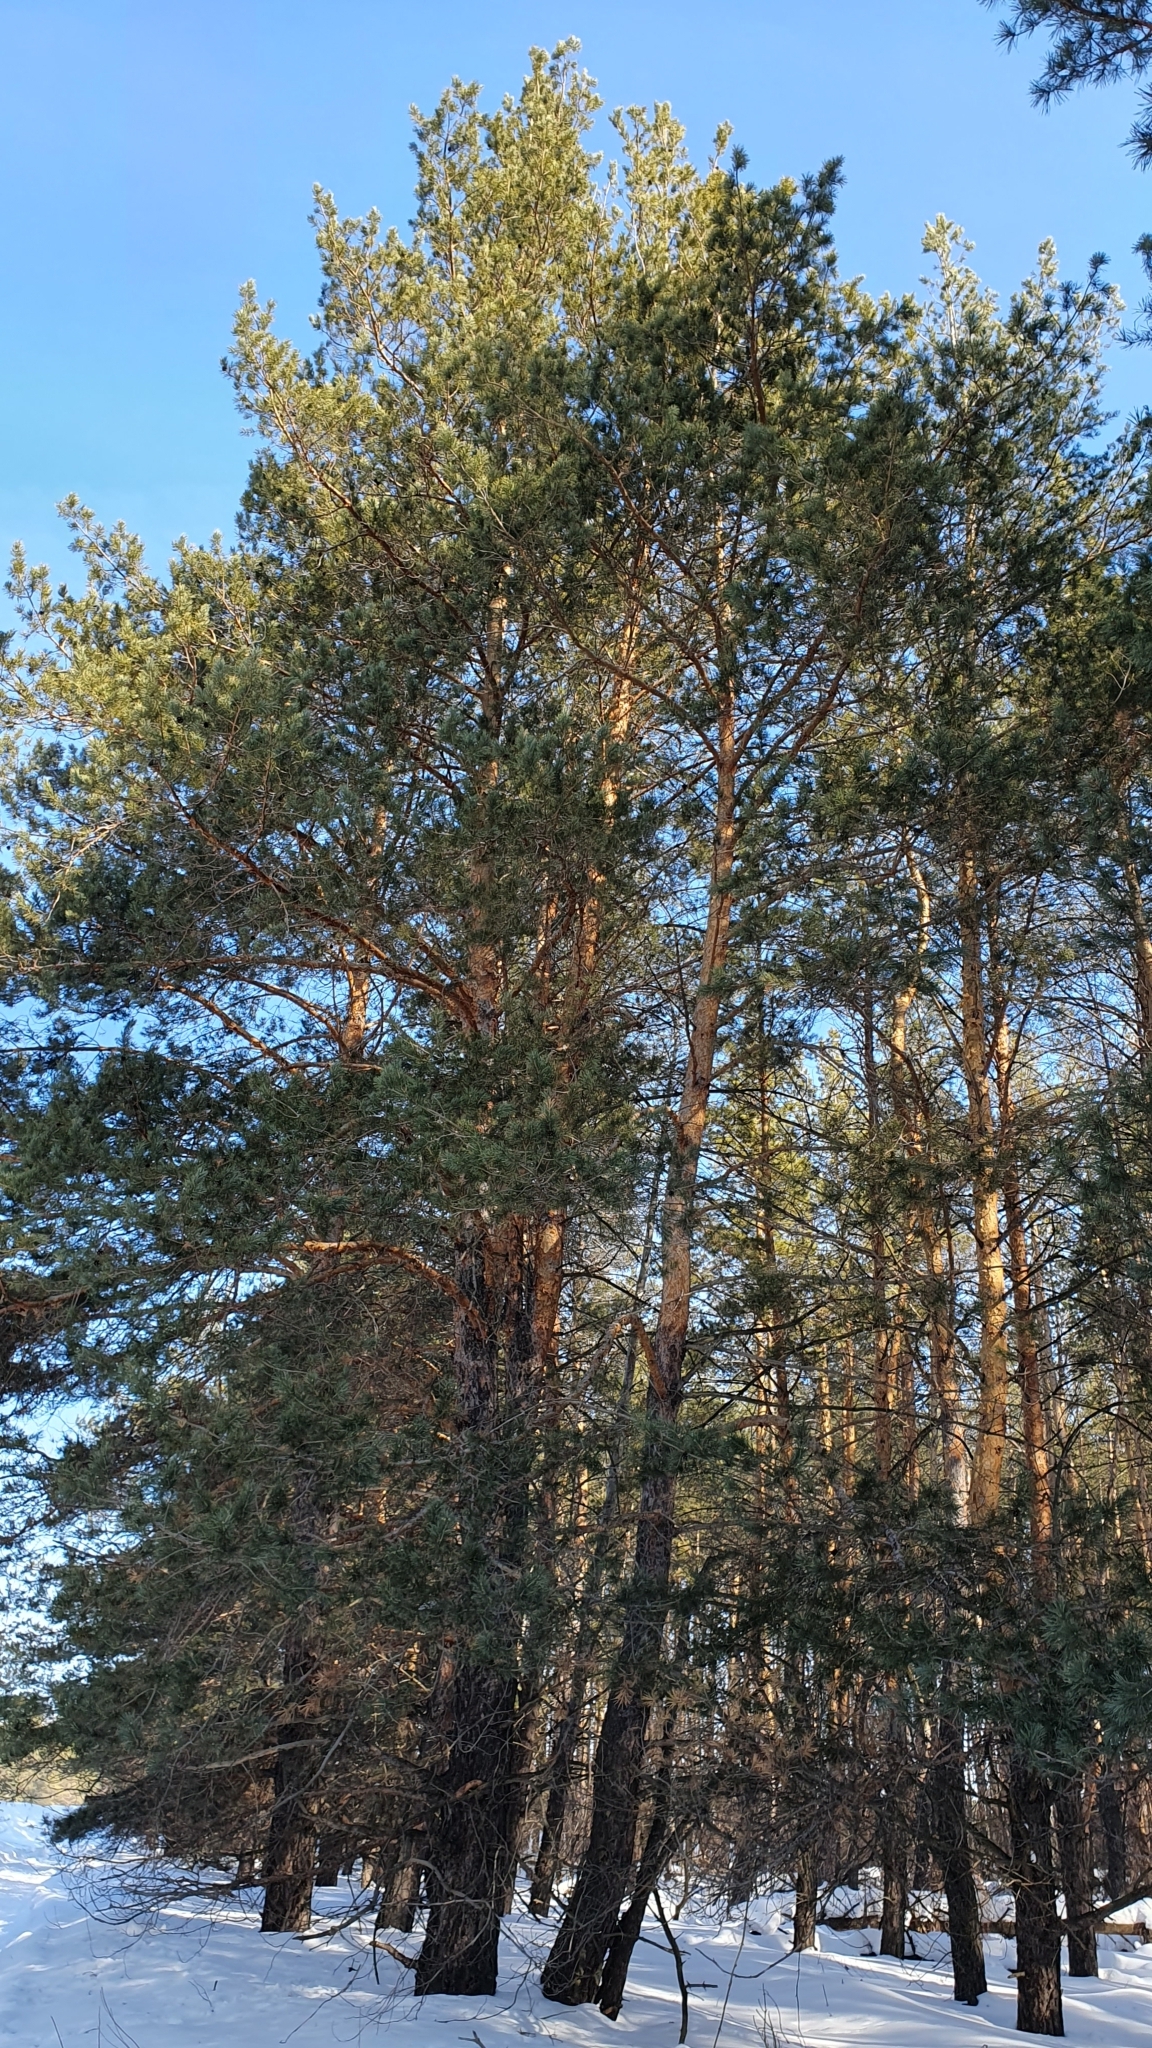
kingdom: Plantae
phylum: Tracheophyta
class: Pinopsida
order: Pinales
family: Pinaceae
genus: Pinus
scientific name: Pinus sylvestris
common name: Scots pine
